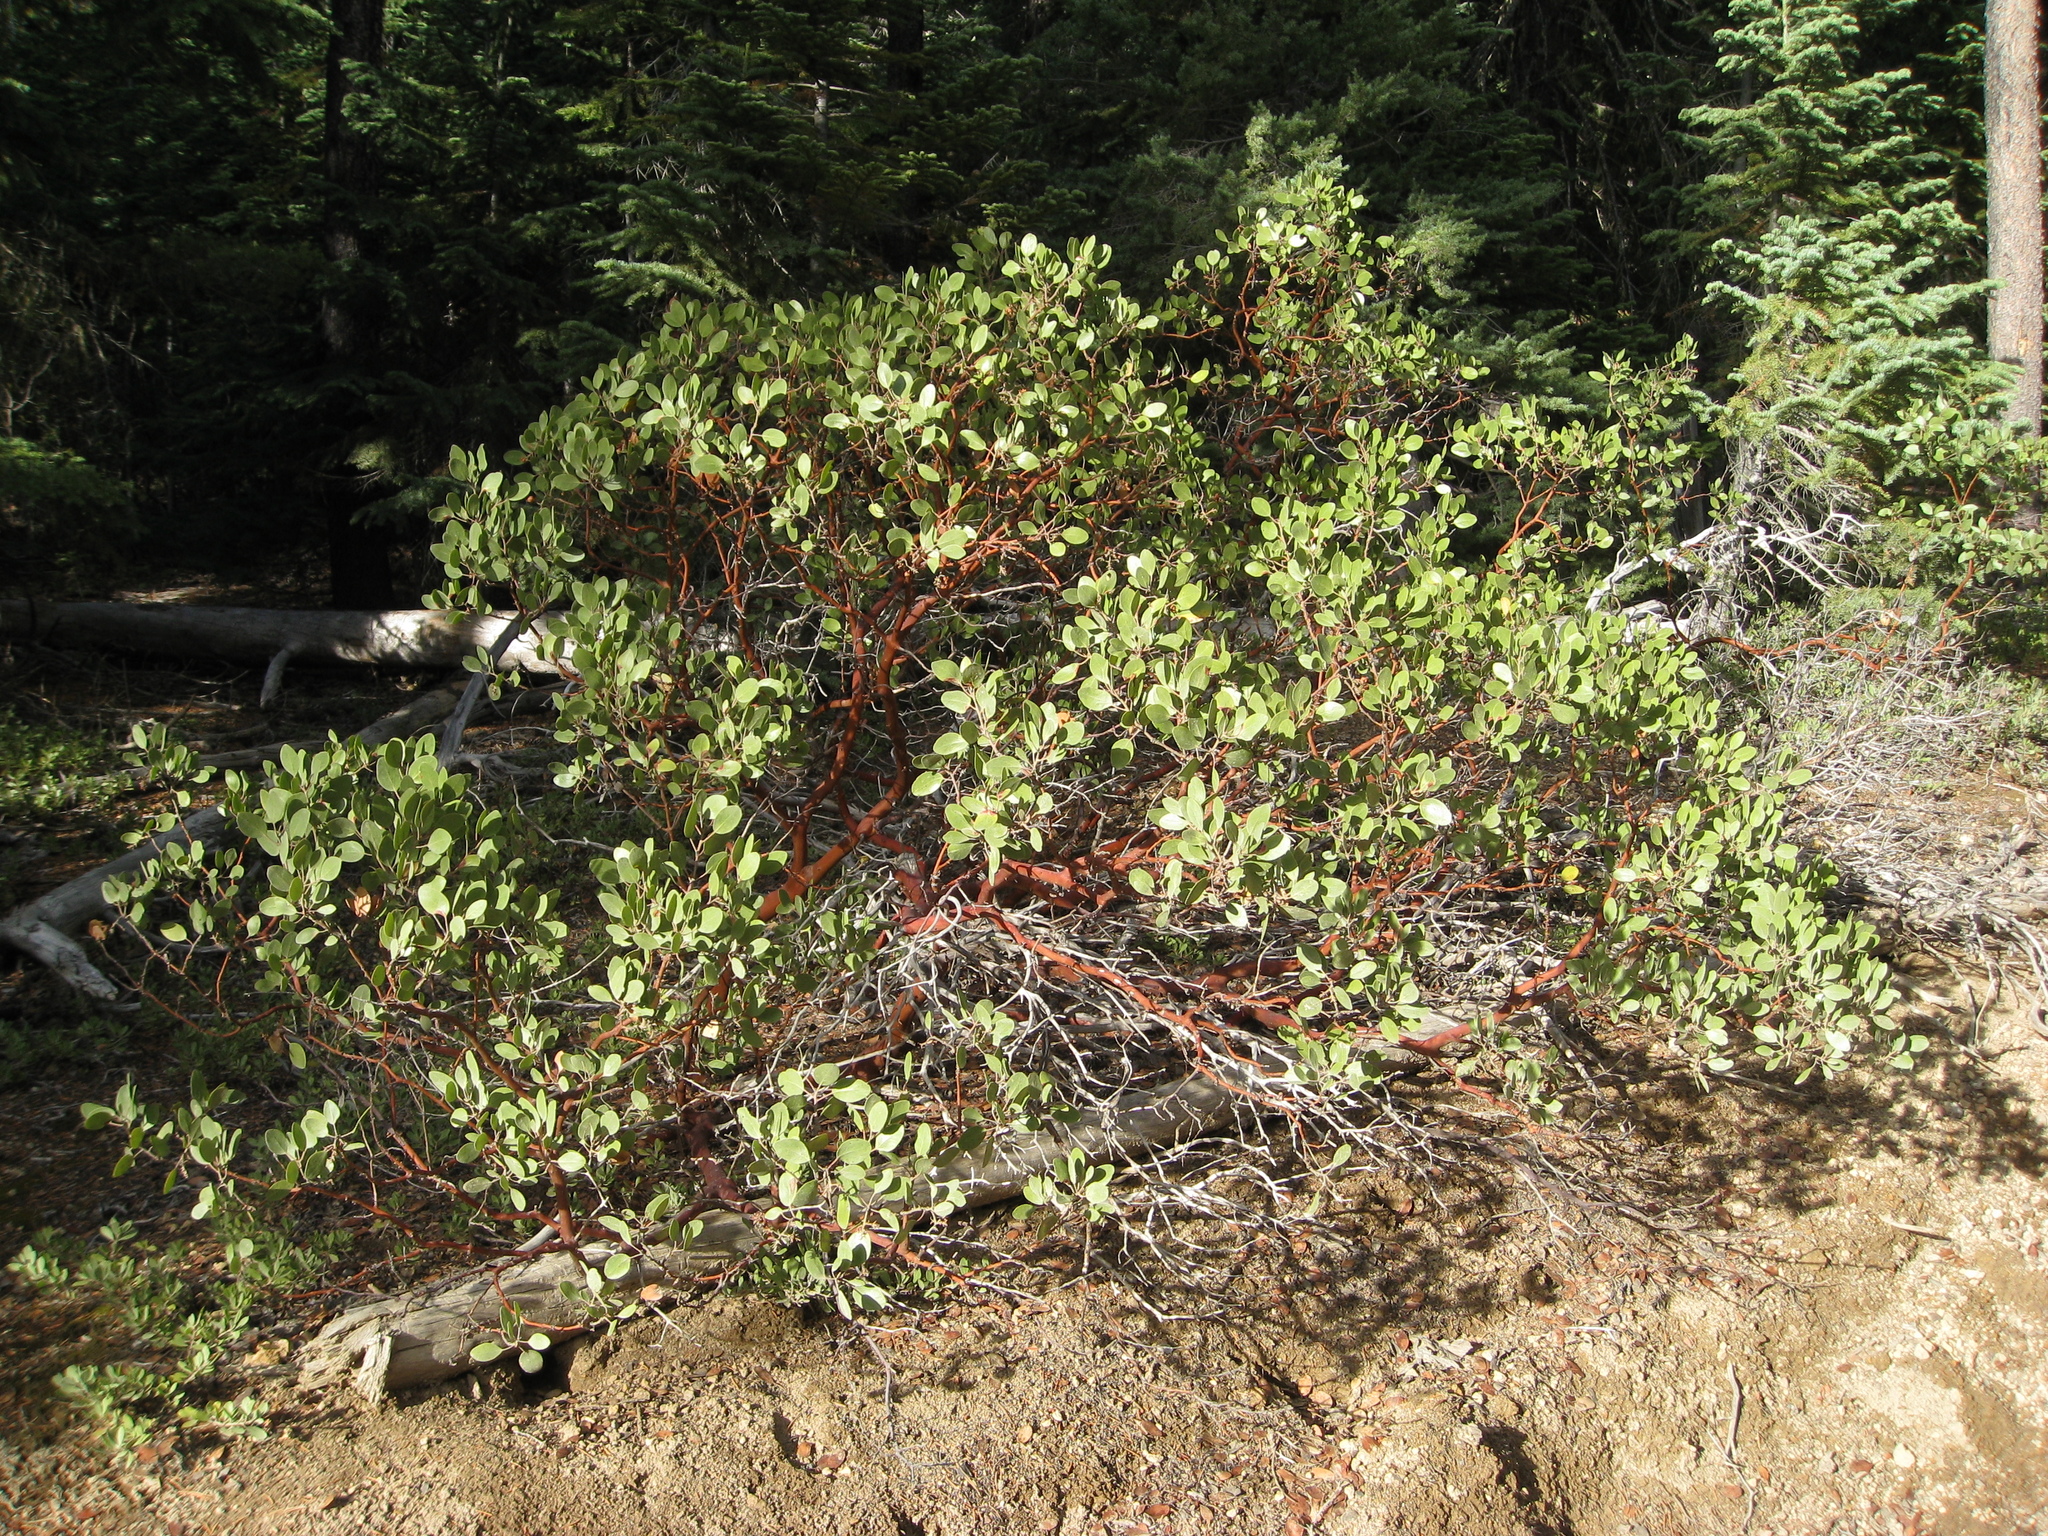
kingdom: Plantae
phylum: Tracheophyta
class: Magnoliopsida
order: Ericales
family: Ericaceae
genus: Arctostaphylos
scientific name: Arctostaphylos patula
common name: Green-leaf manzanita
